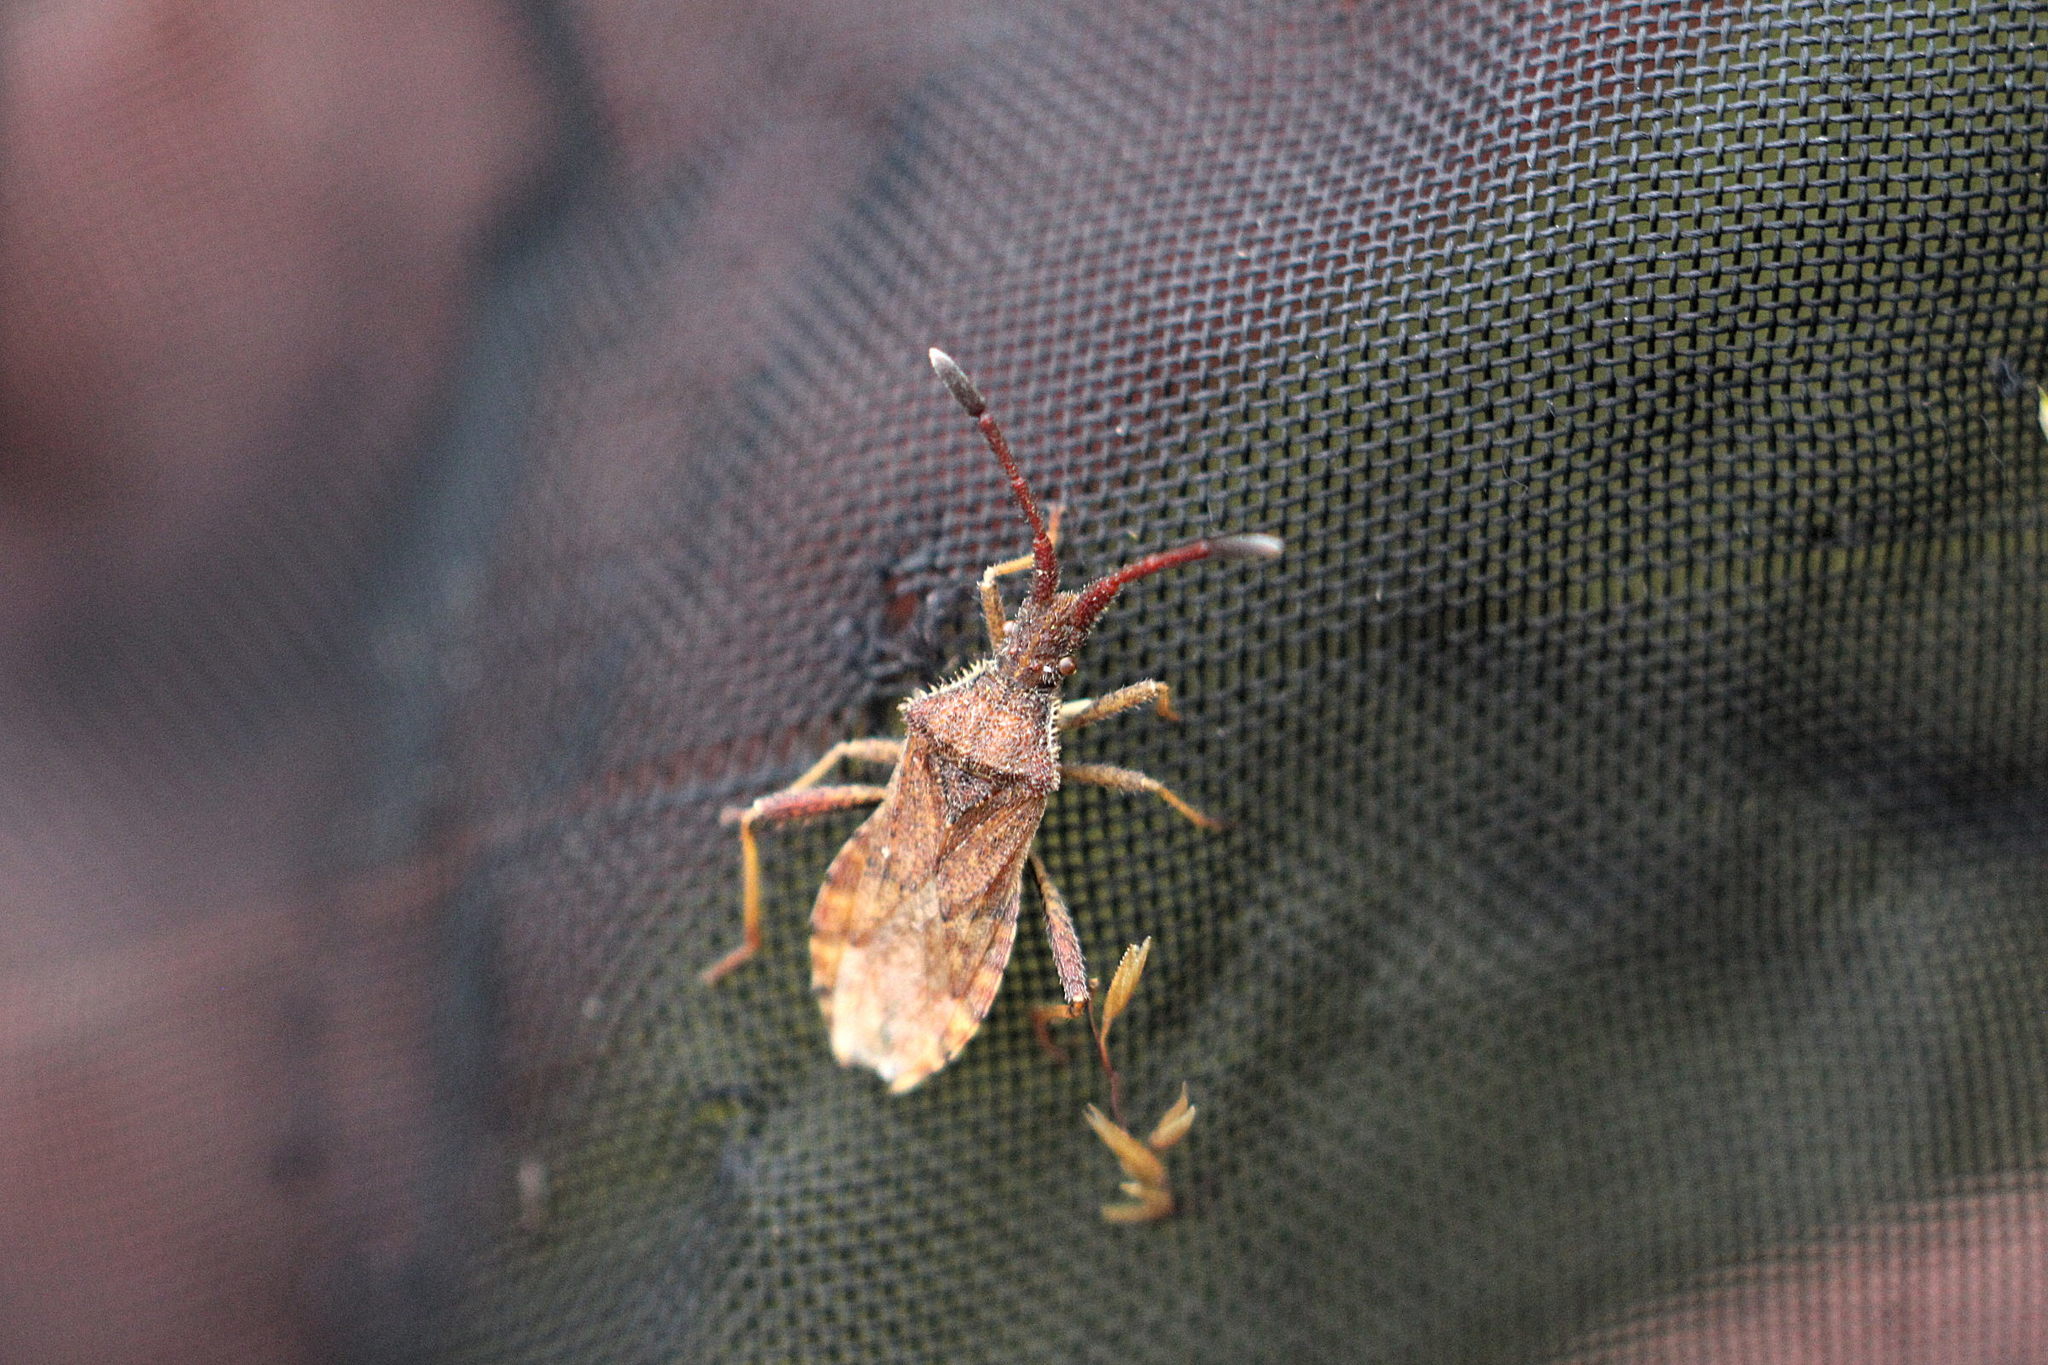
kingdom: Animalia
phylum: Arthropoda
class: Insecta
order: Hemiptera
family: Coreidae
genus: Coriomeris
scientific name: Coriomeris denticulatus
